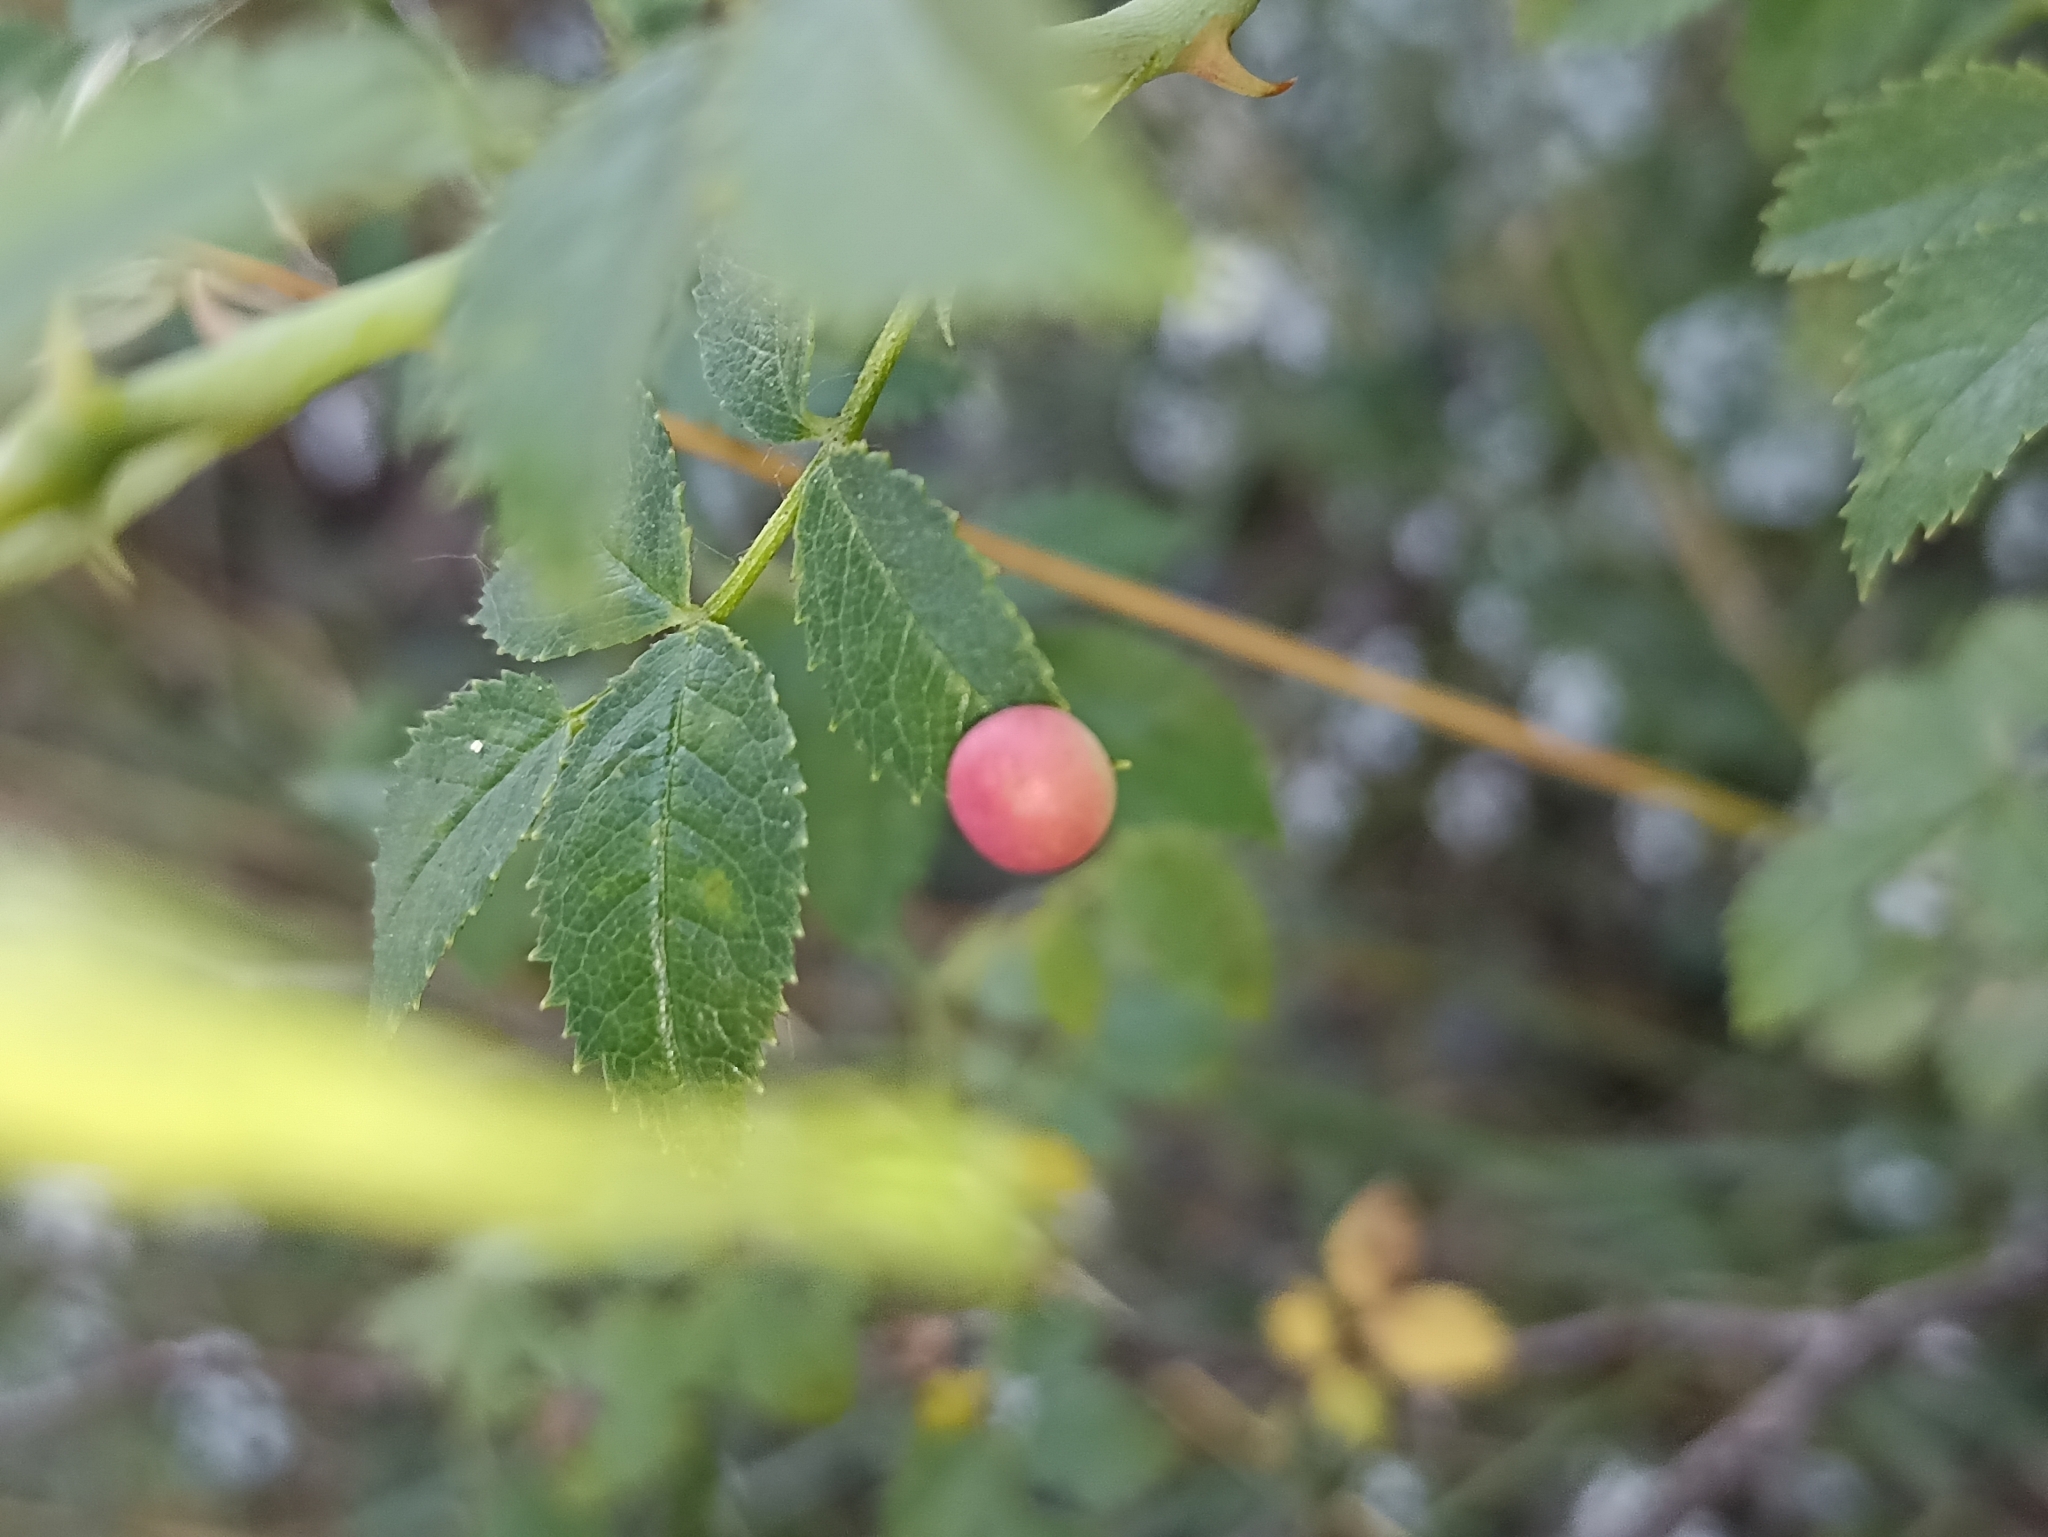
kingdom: Animalia
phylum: Arthropoda
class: Insecta
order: Hymenoptera
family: Cynipidae
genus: Diplolepis
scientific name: Diplolepis eglanteriae
